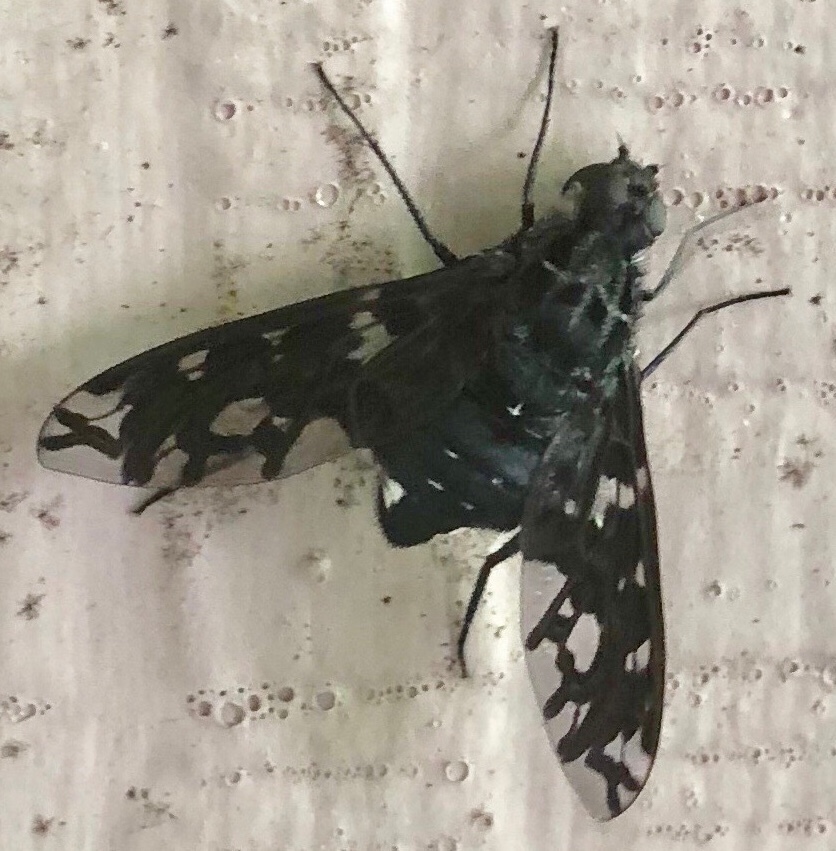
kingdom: Animalia
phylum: Arthropoda
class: Insecta
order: Diptera
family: Bombyliidae
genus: Xenox
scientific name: Xenox tigrinus
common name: Tiger bee fly
